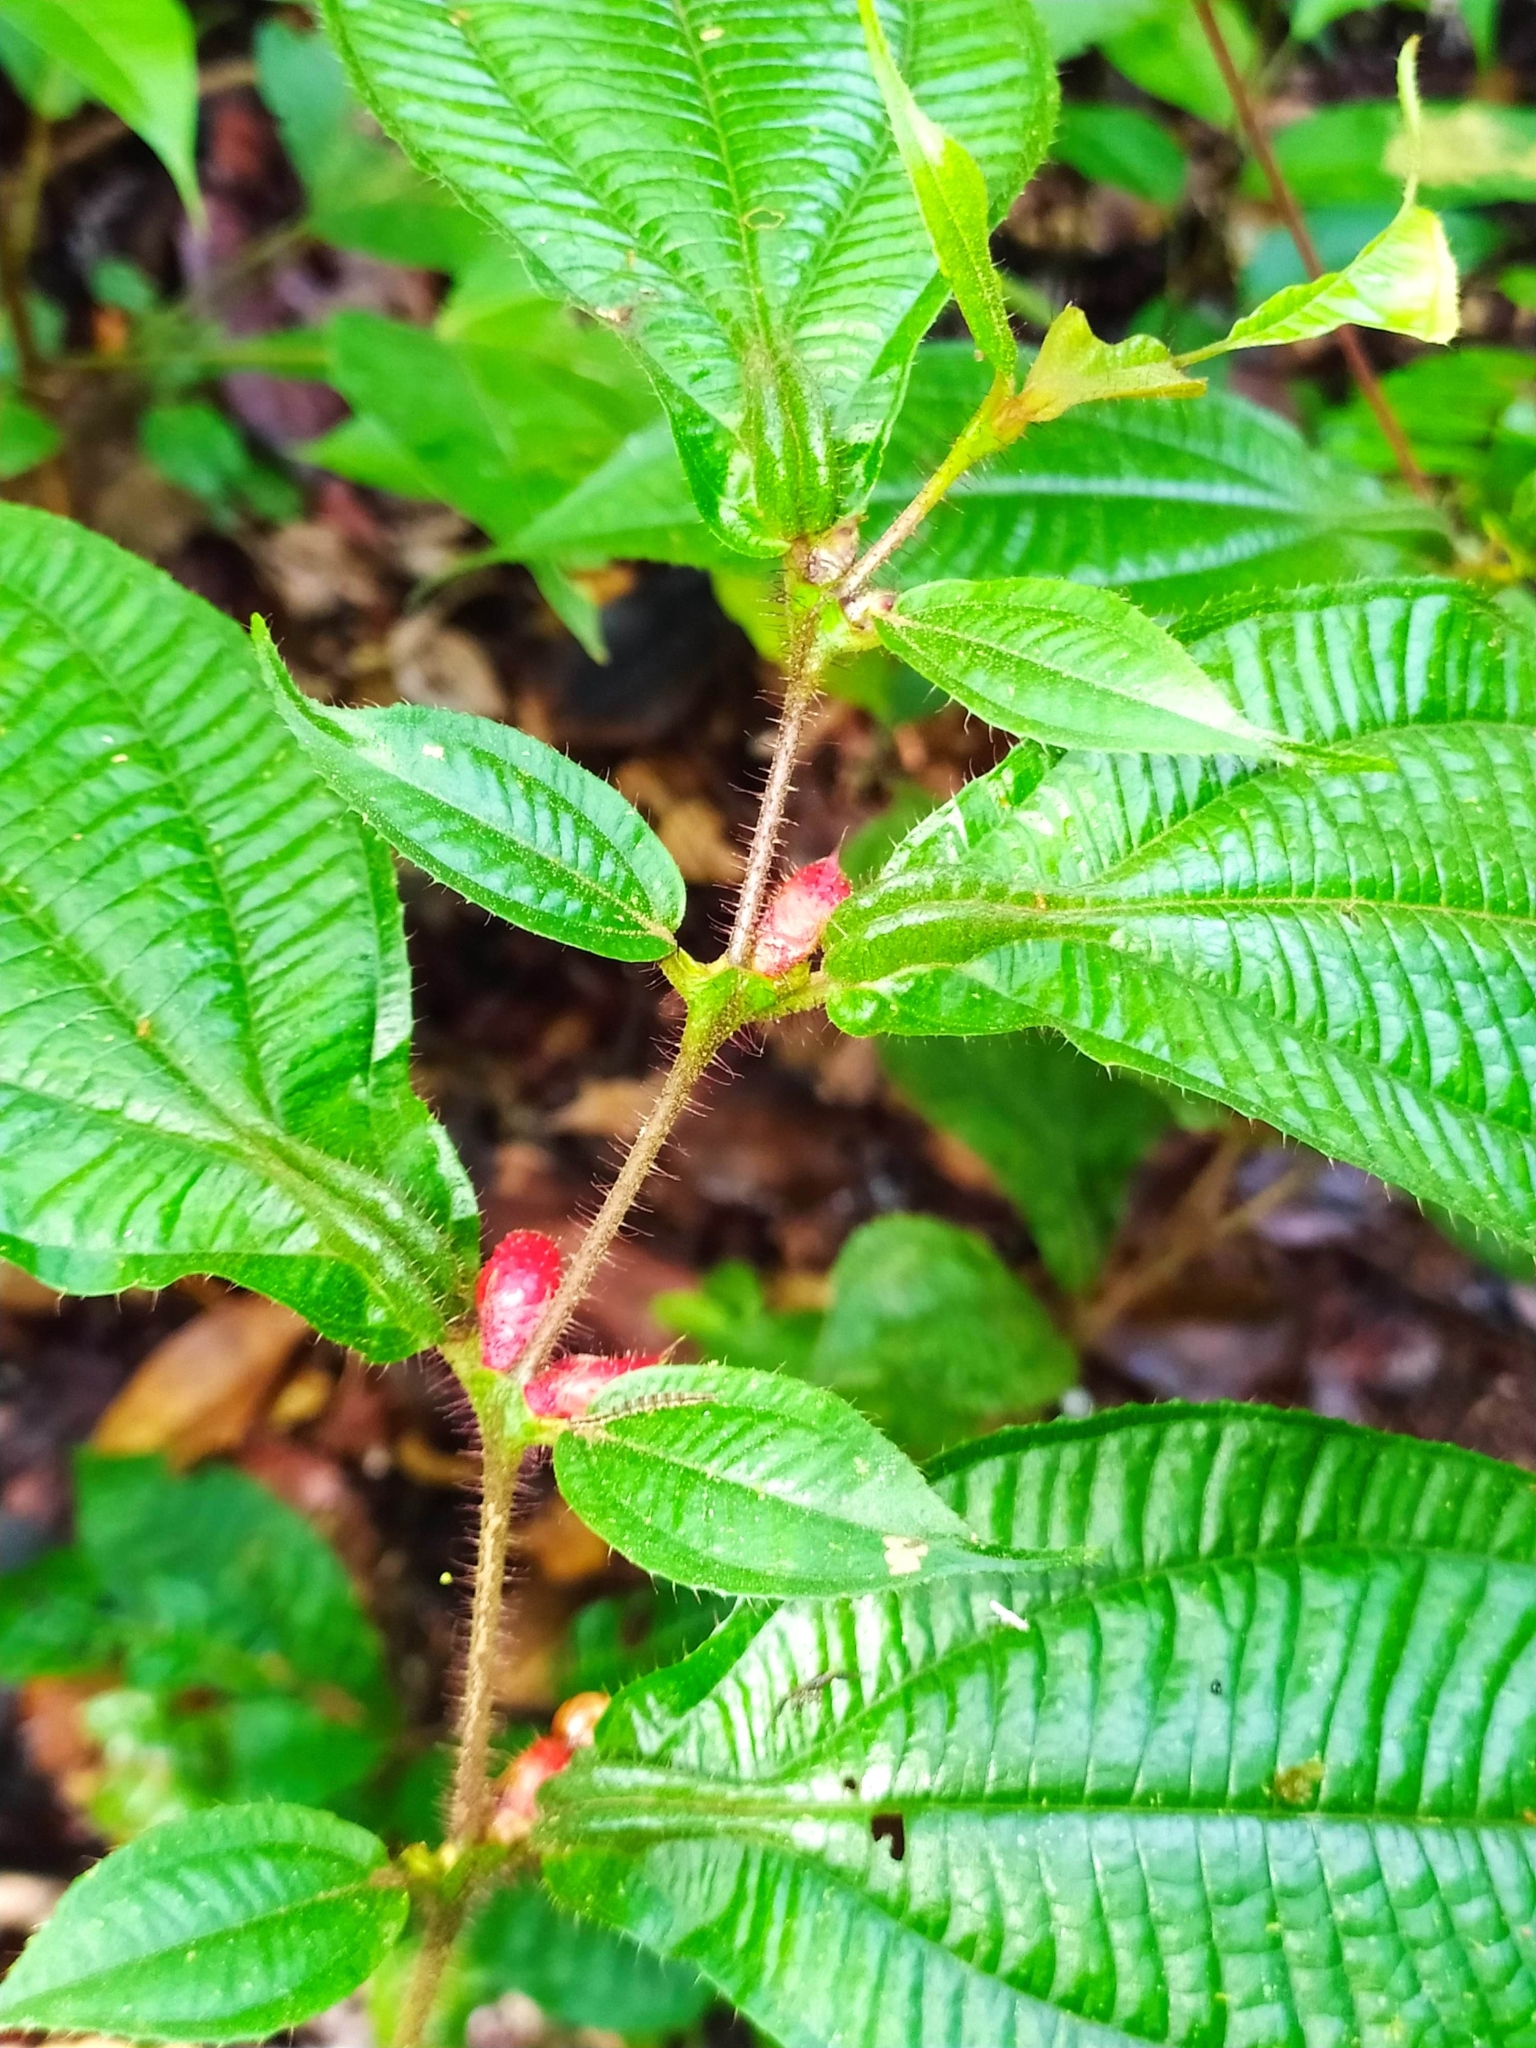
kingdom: Plantae
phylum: Tracheophyta
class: Magnoliopsida
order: Myrtales
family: Melastomataceae
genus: Miconia
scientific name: Miconia mayeta
